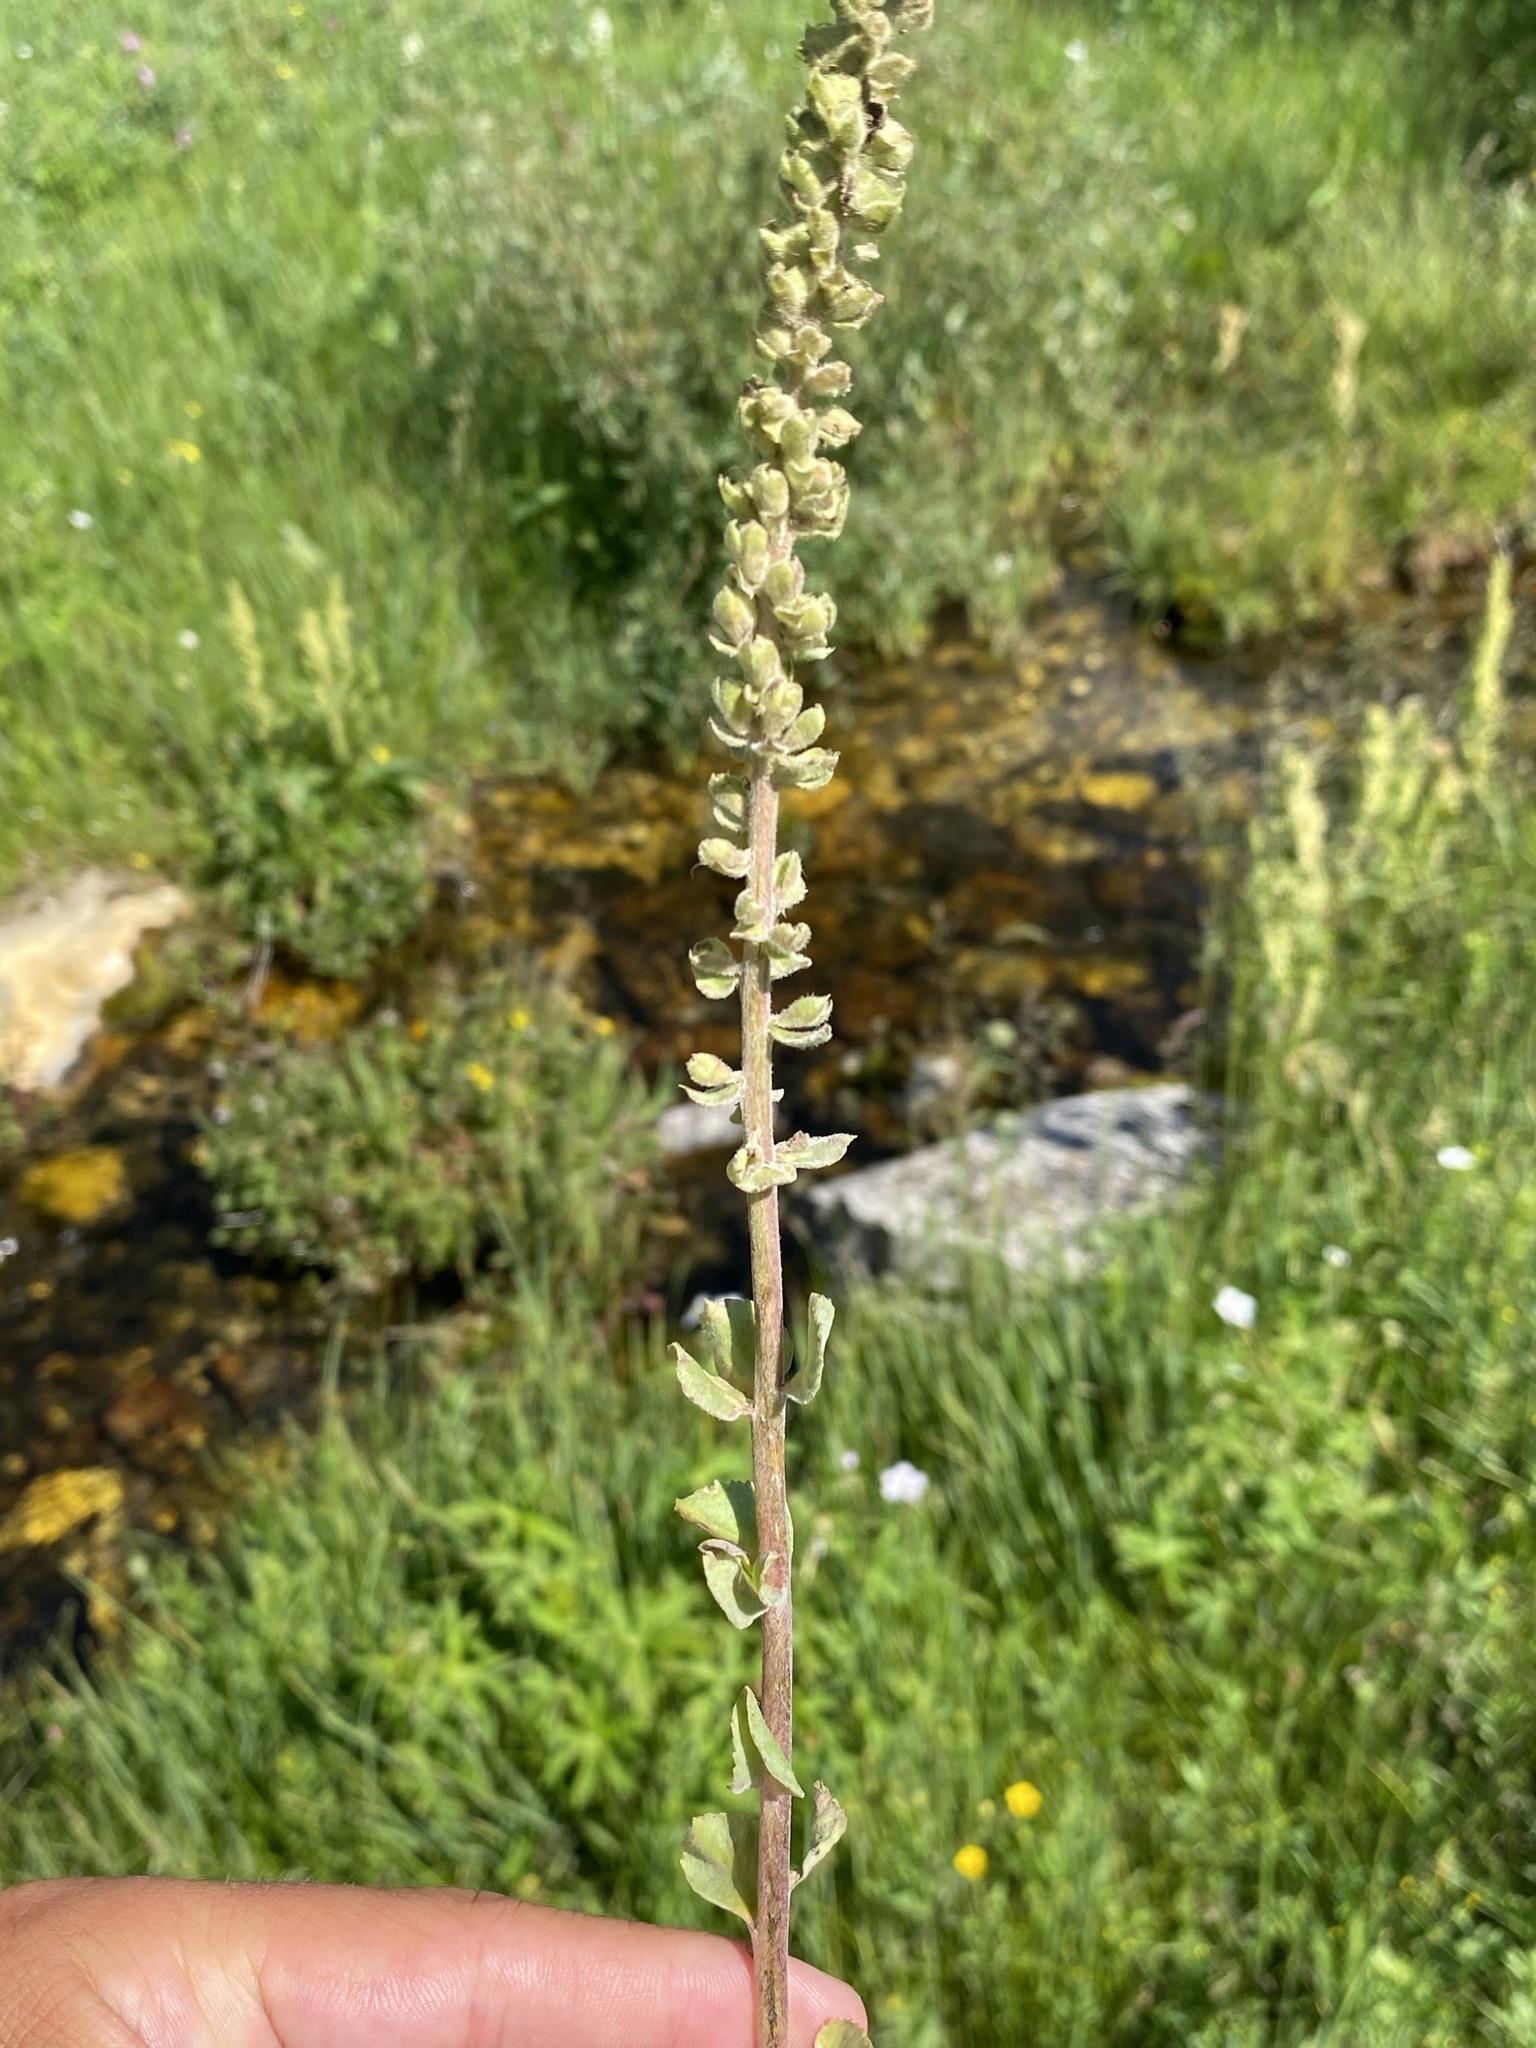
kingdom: Plantae
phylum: Tracheophyta
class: Magnoliopsida
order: Lamiales
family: Plantaginaceae
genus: Synthyris
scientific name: Synthyris wyomingensis
